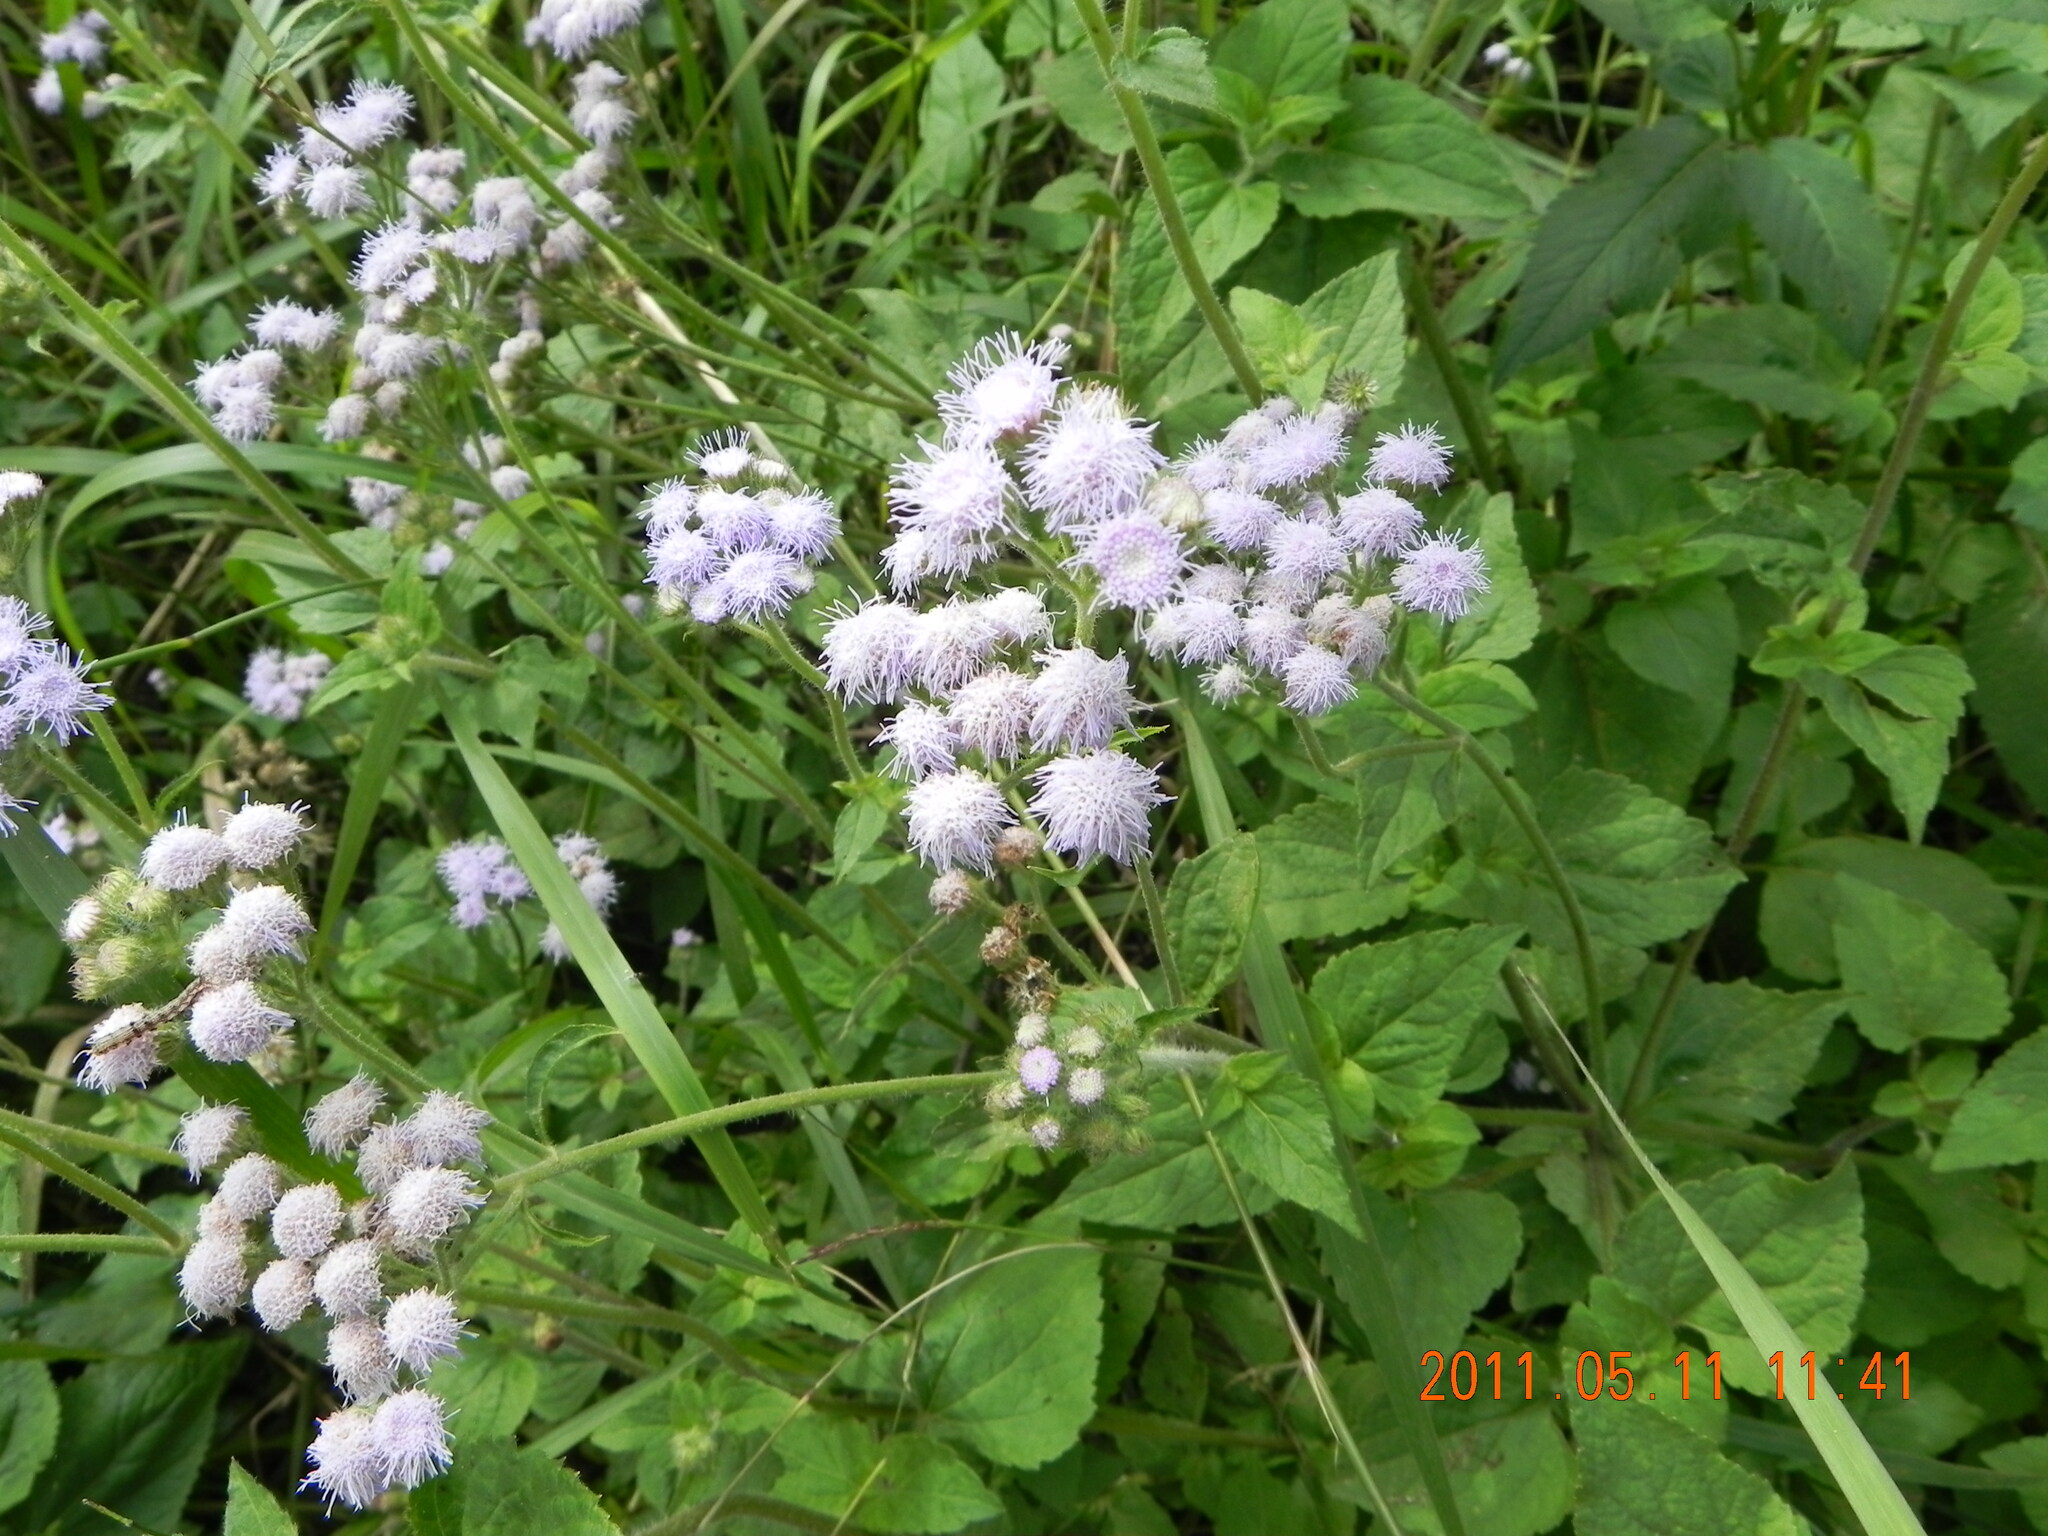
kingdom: Plantae
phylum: Tracheophyta
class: Magnoliopsida
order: Asterales
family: Asteraceae
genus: Ageratum
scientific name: Ageratum houstonianum
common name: Bluemink
